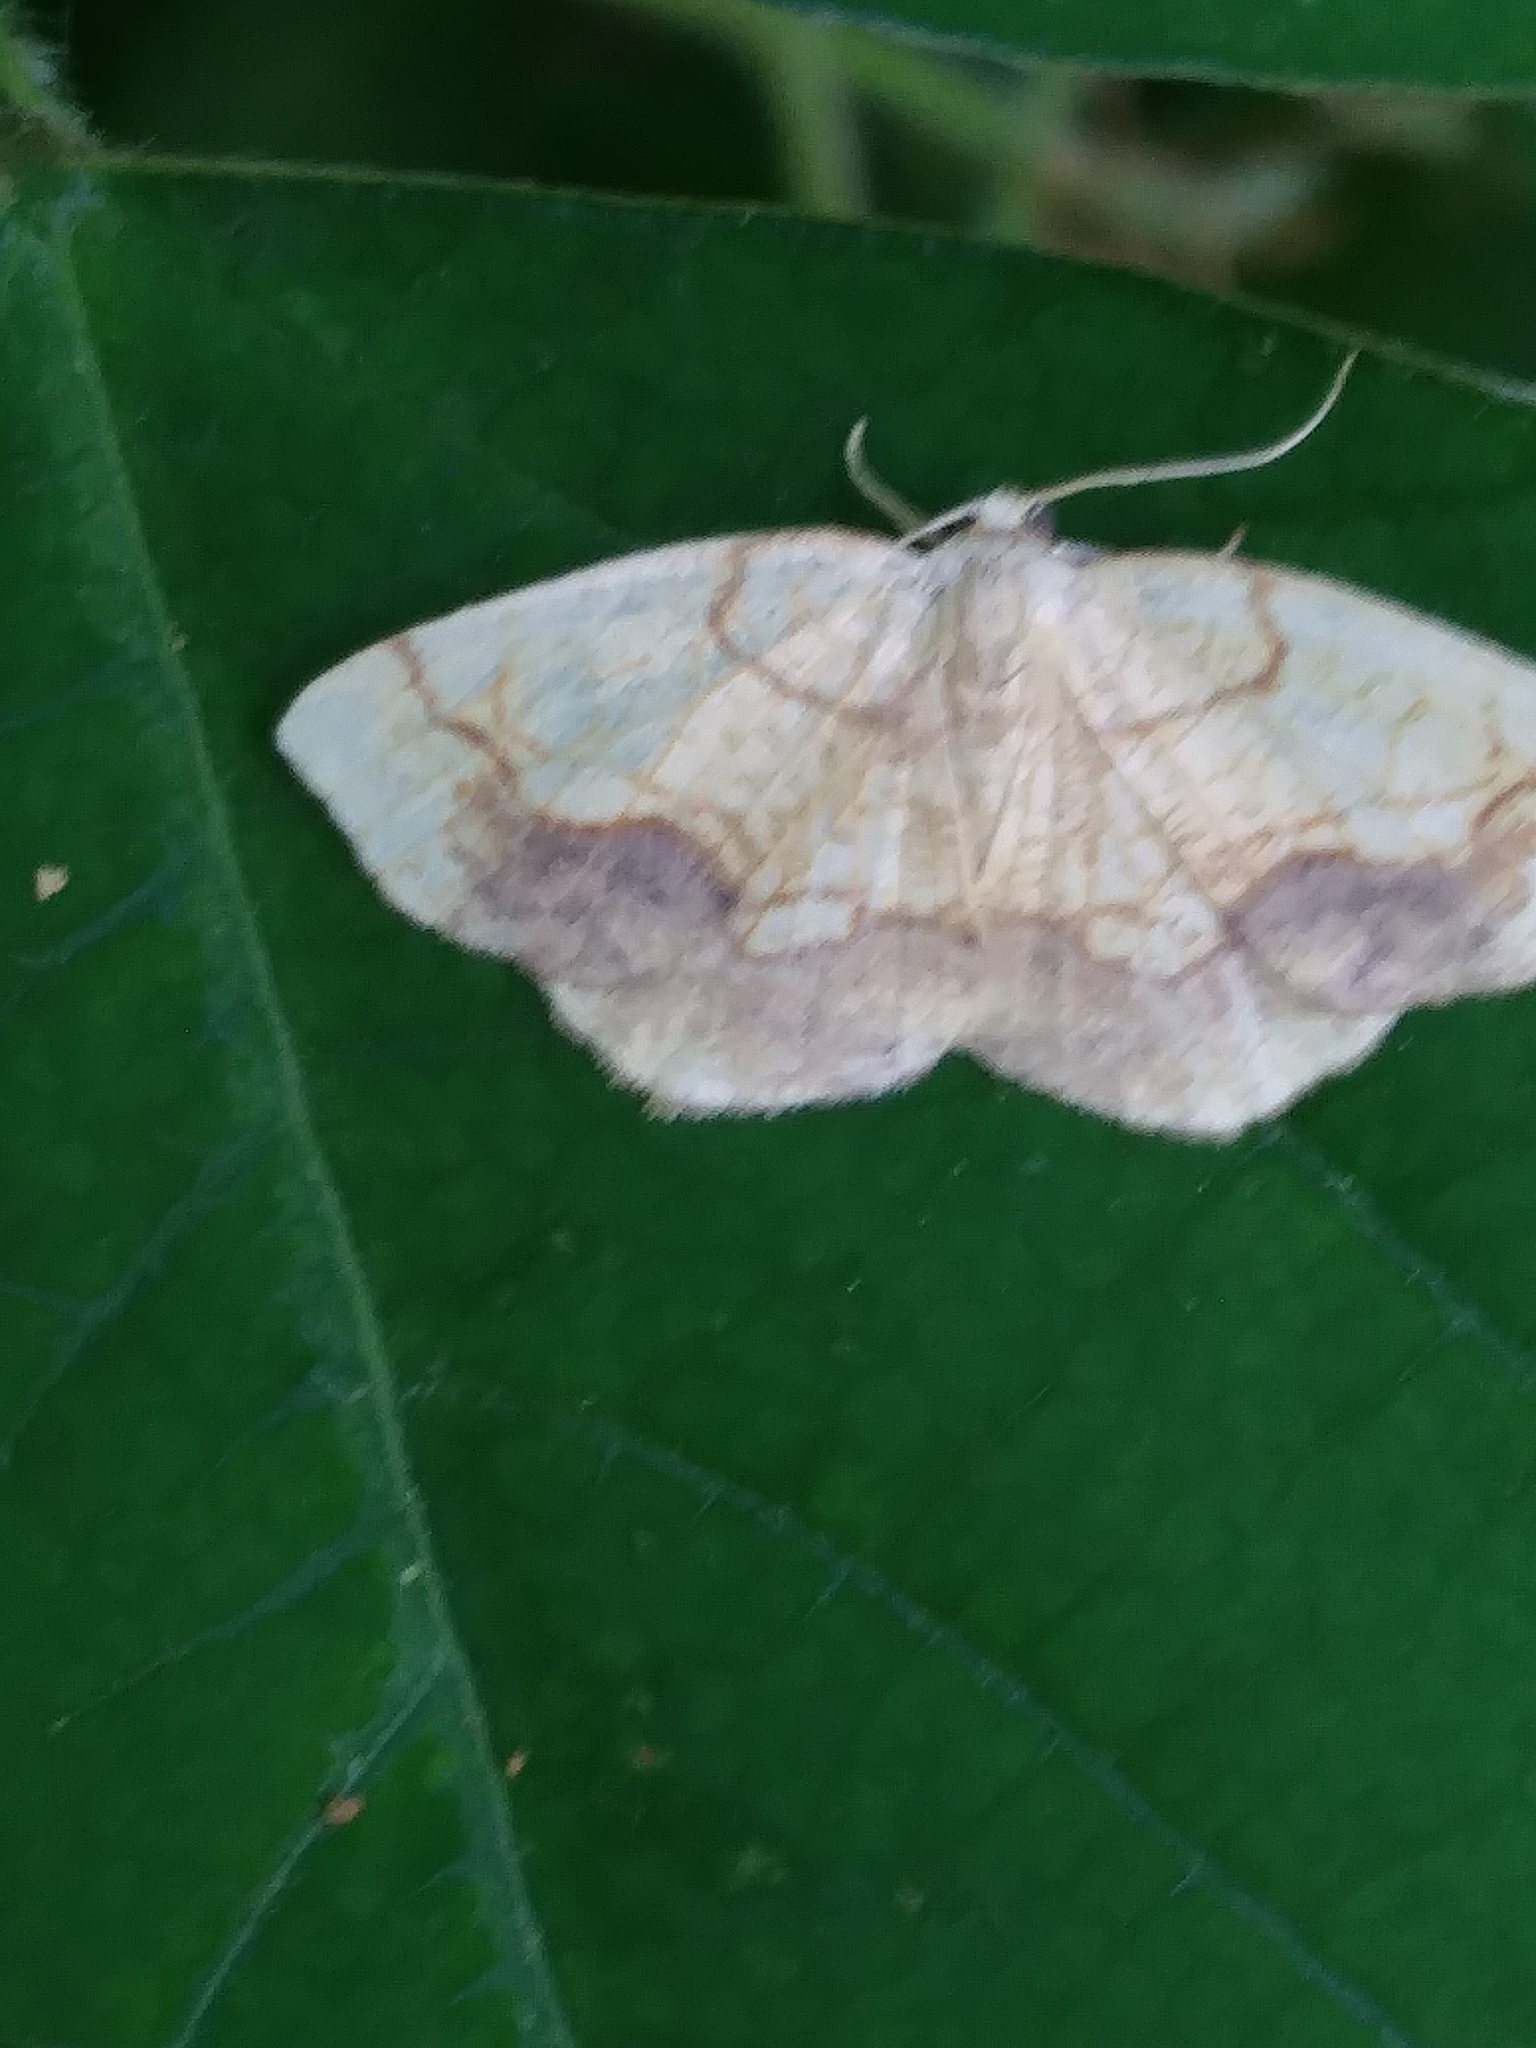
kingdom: Animalia
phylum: Arthropoda
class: Insecta
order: Lepidoptera
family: Geometridae
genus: Nematocampa
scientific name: Nematocampa resistaria
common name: Horned spanworm moth
